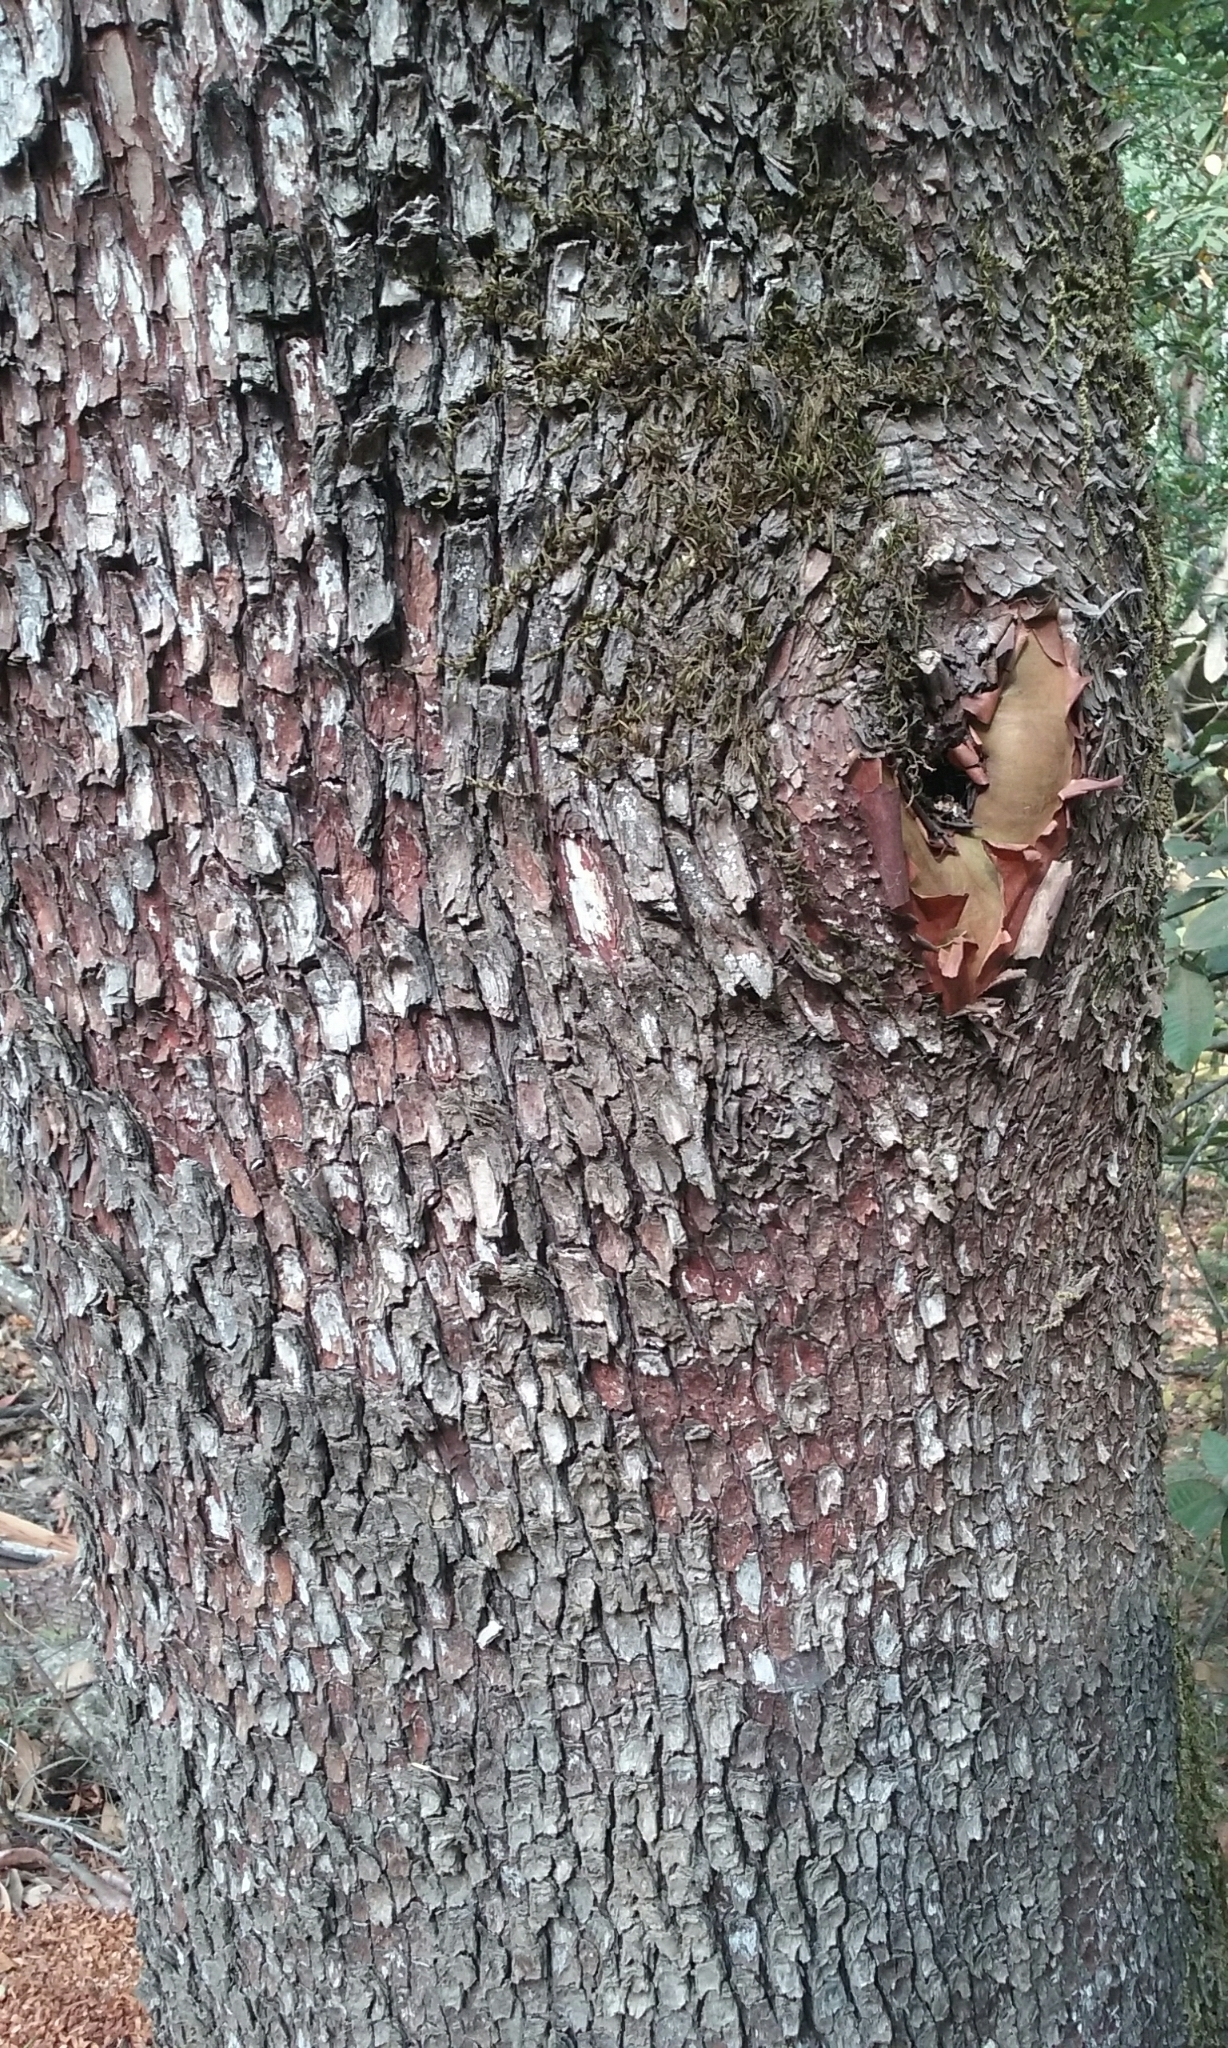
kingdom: Plantae
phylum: Tracheophyta
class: Magnoliopsida
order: Ericales
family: Ericaceae
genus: Arbutus
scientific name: Arbutus menziesii
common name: Pacific madrone
